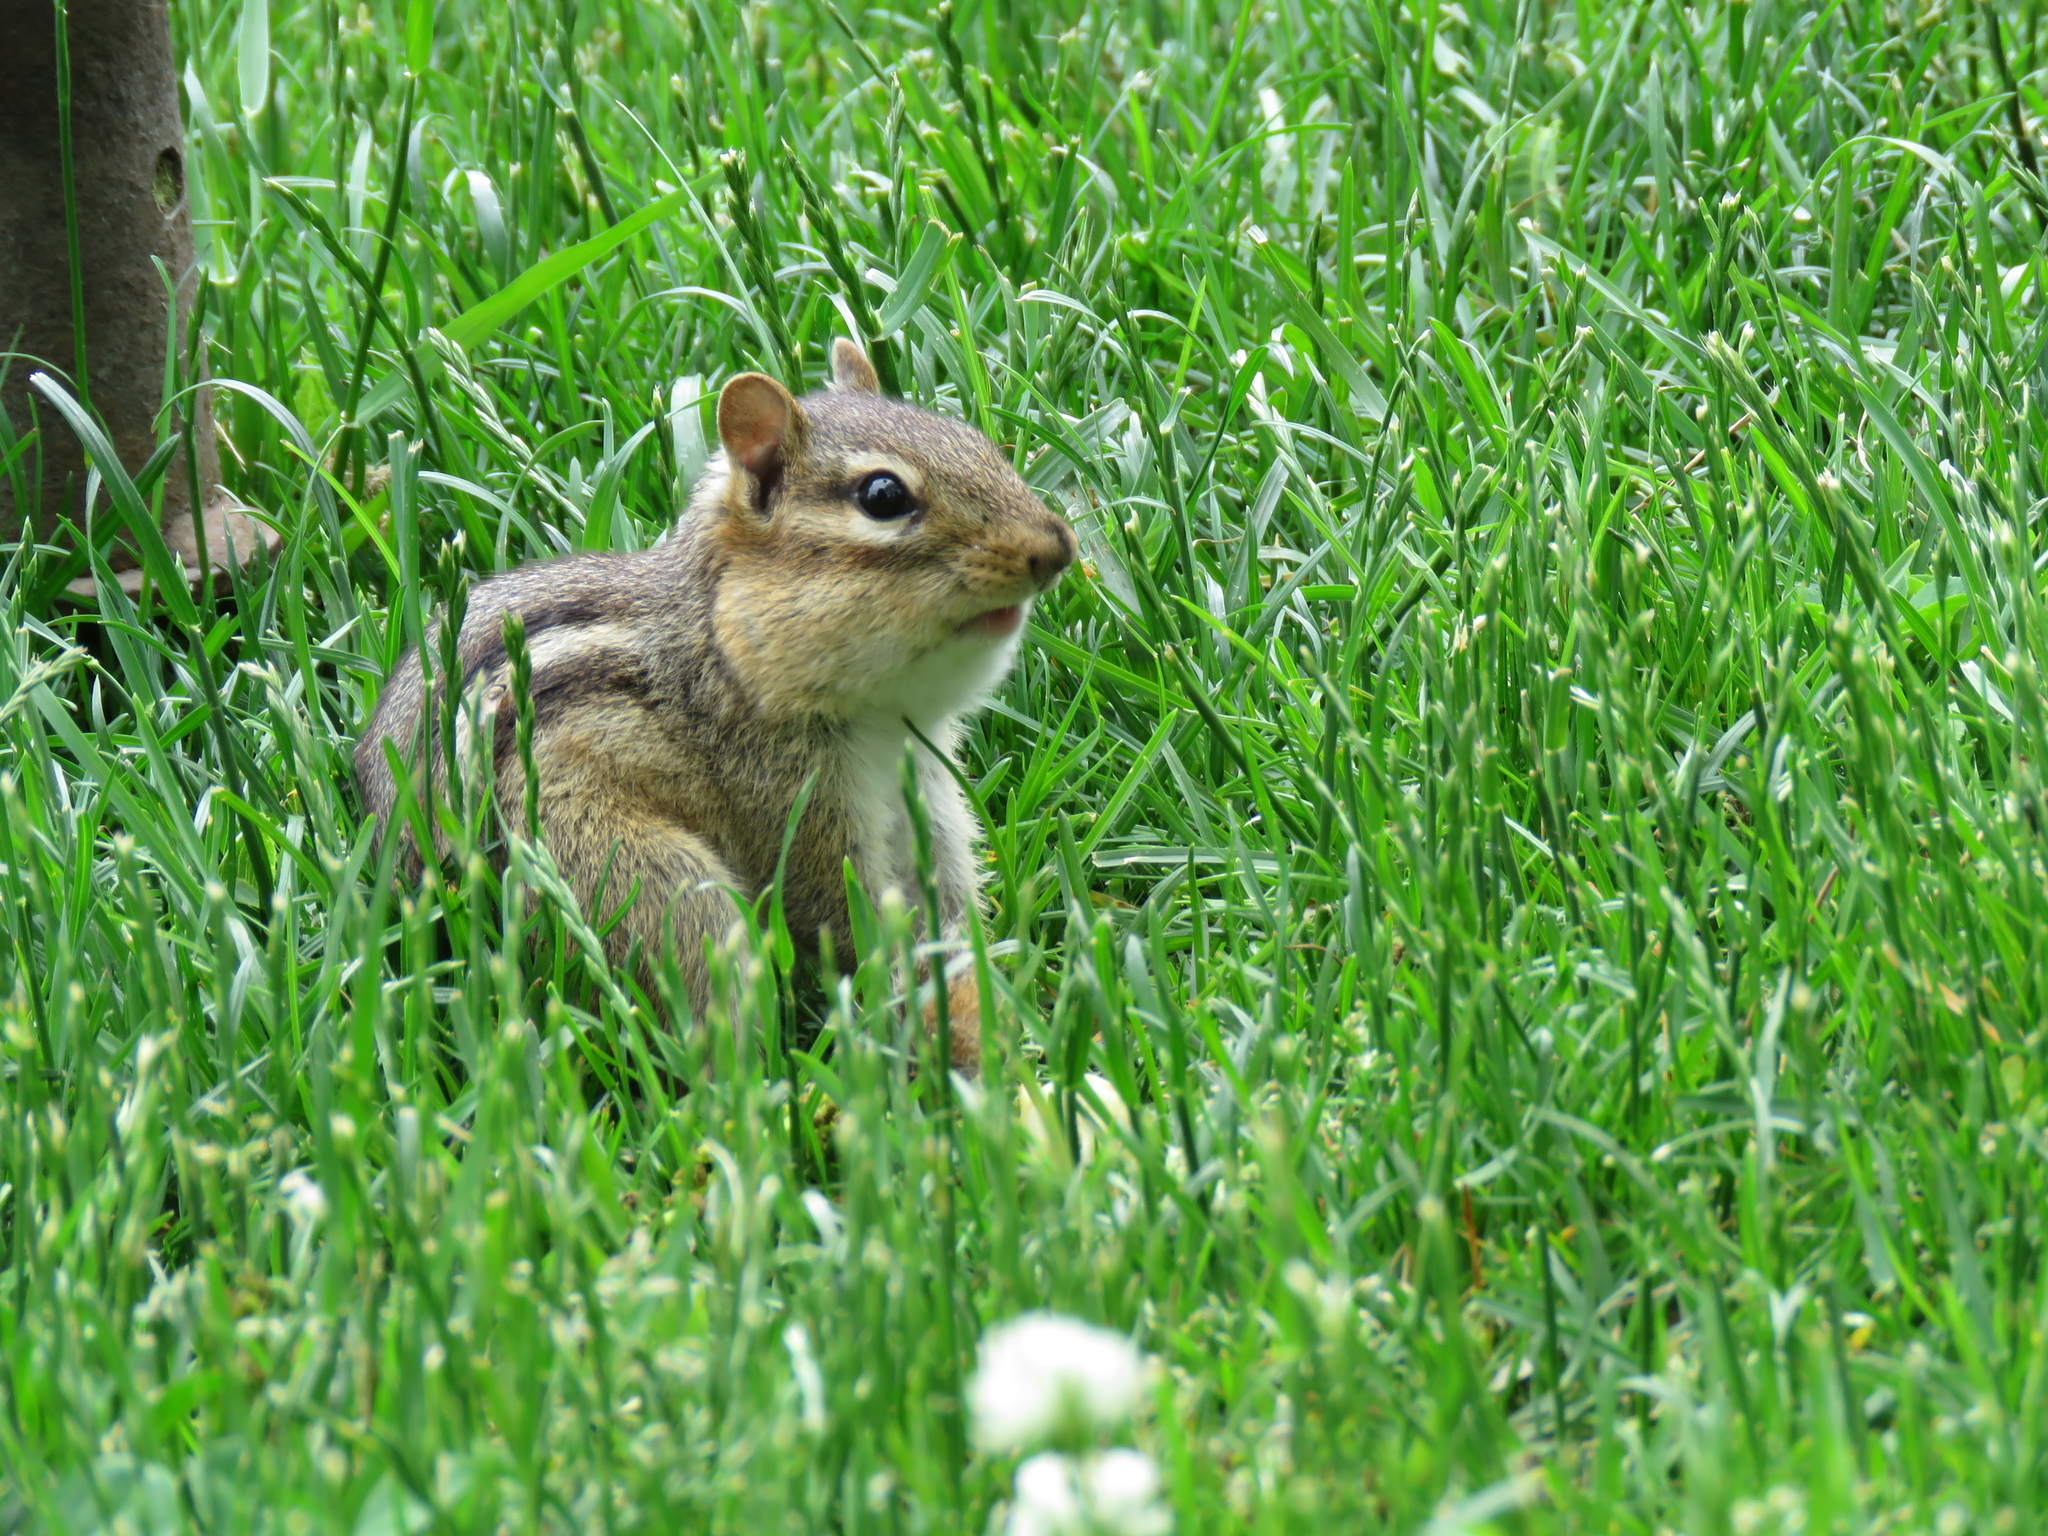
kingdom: Animalia
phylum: Chordata
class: Mammalia
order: Rodentia
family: Sciuridae
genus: Tamias
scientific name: Tamias striatus
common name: Eastern chipmunk
